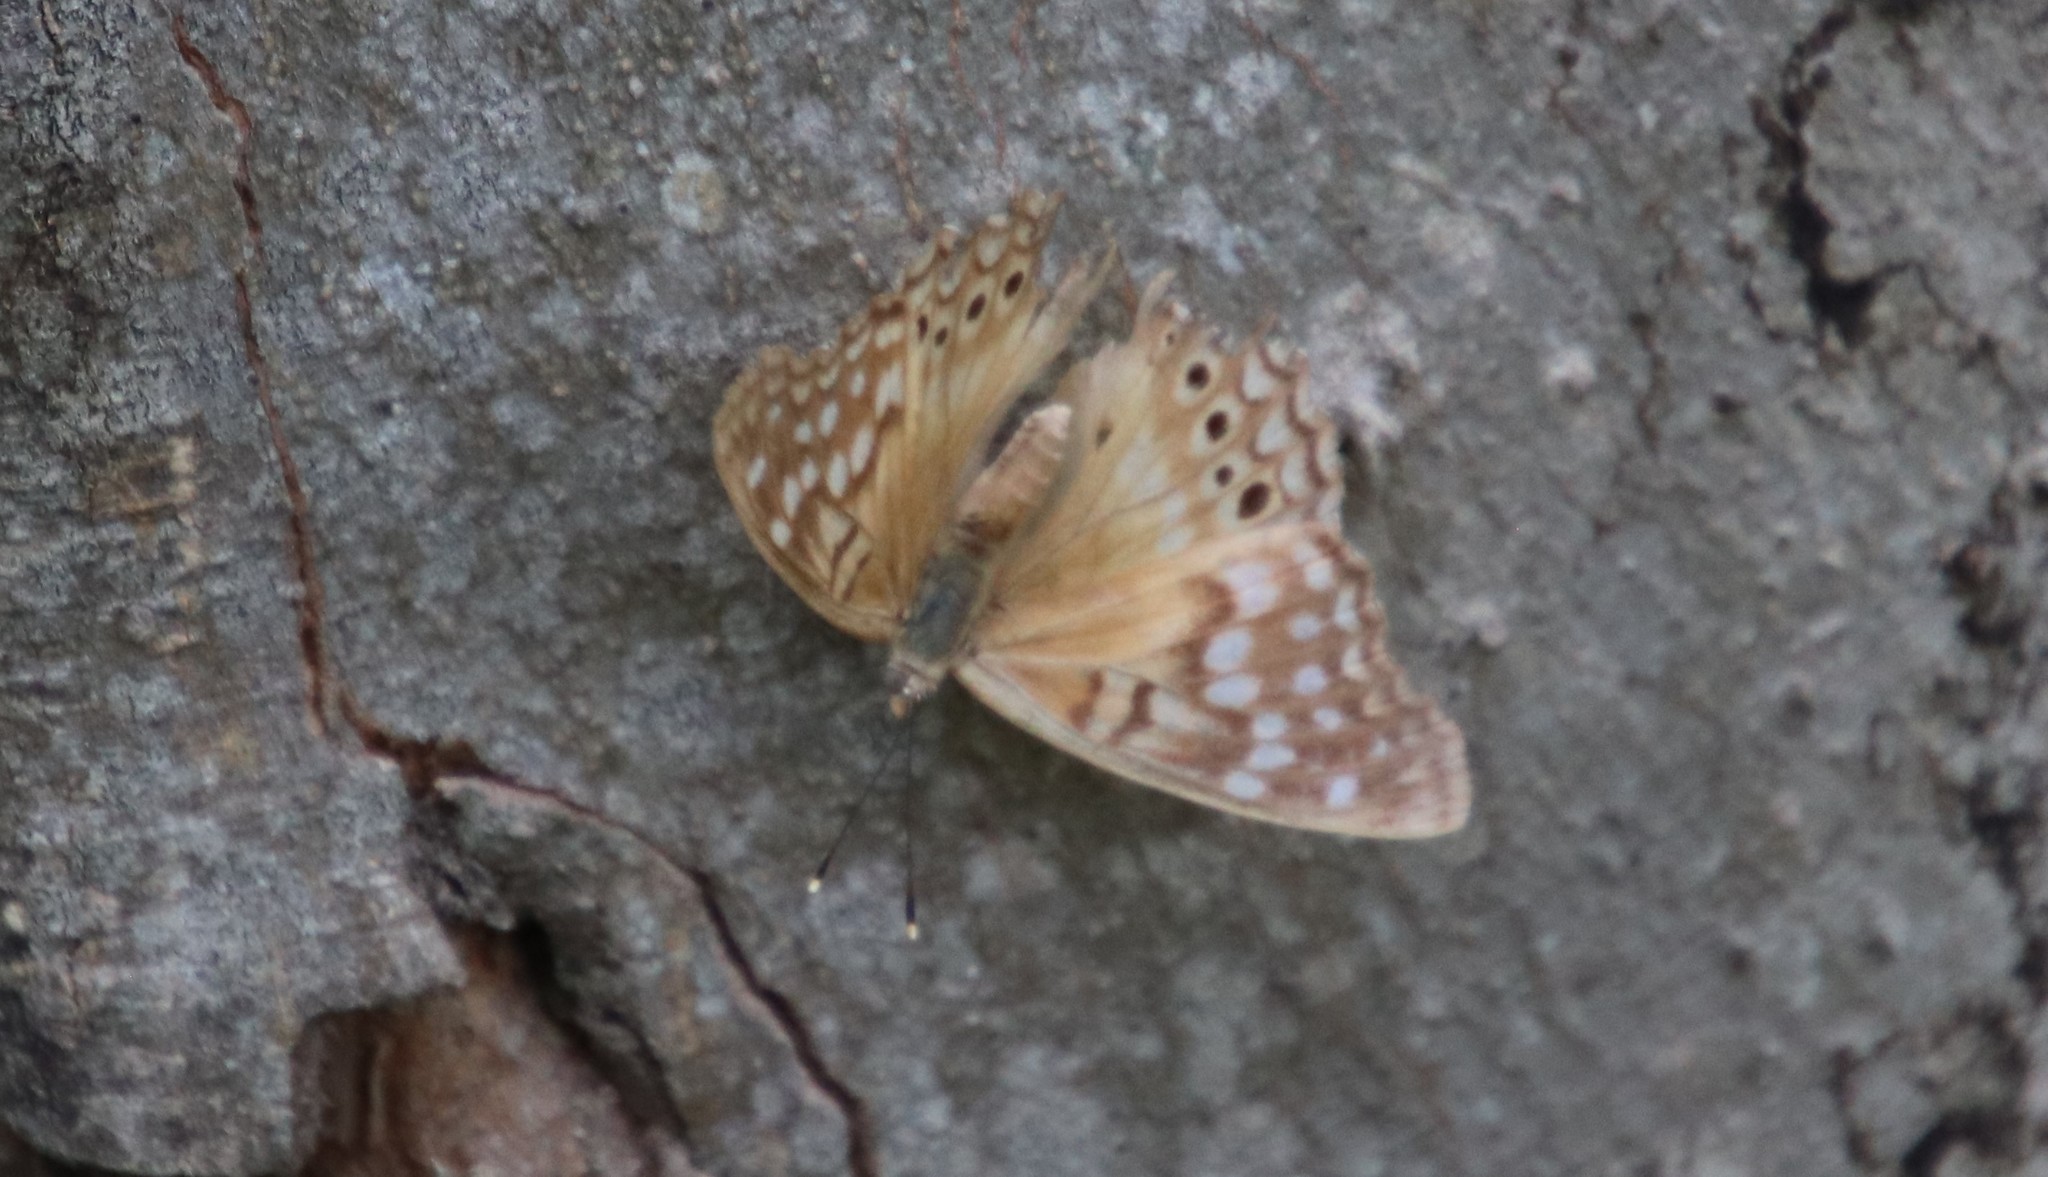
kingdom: Animalia
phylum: Arthropoda
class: Insecta
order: Lepidoptera
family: Nymphalidae
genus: Asterocampa
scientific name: Asterocampa clyton
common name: Tawny emperor
